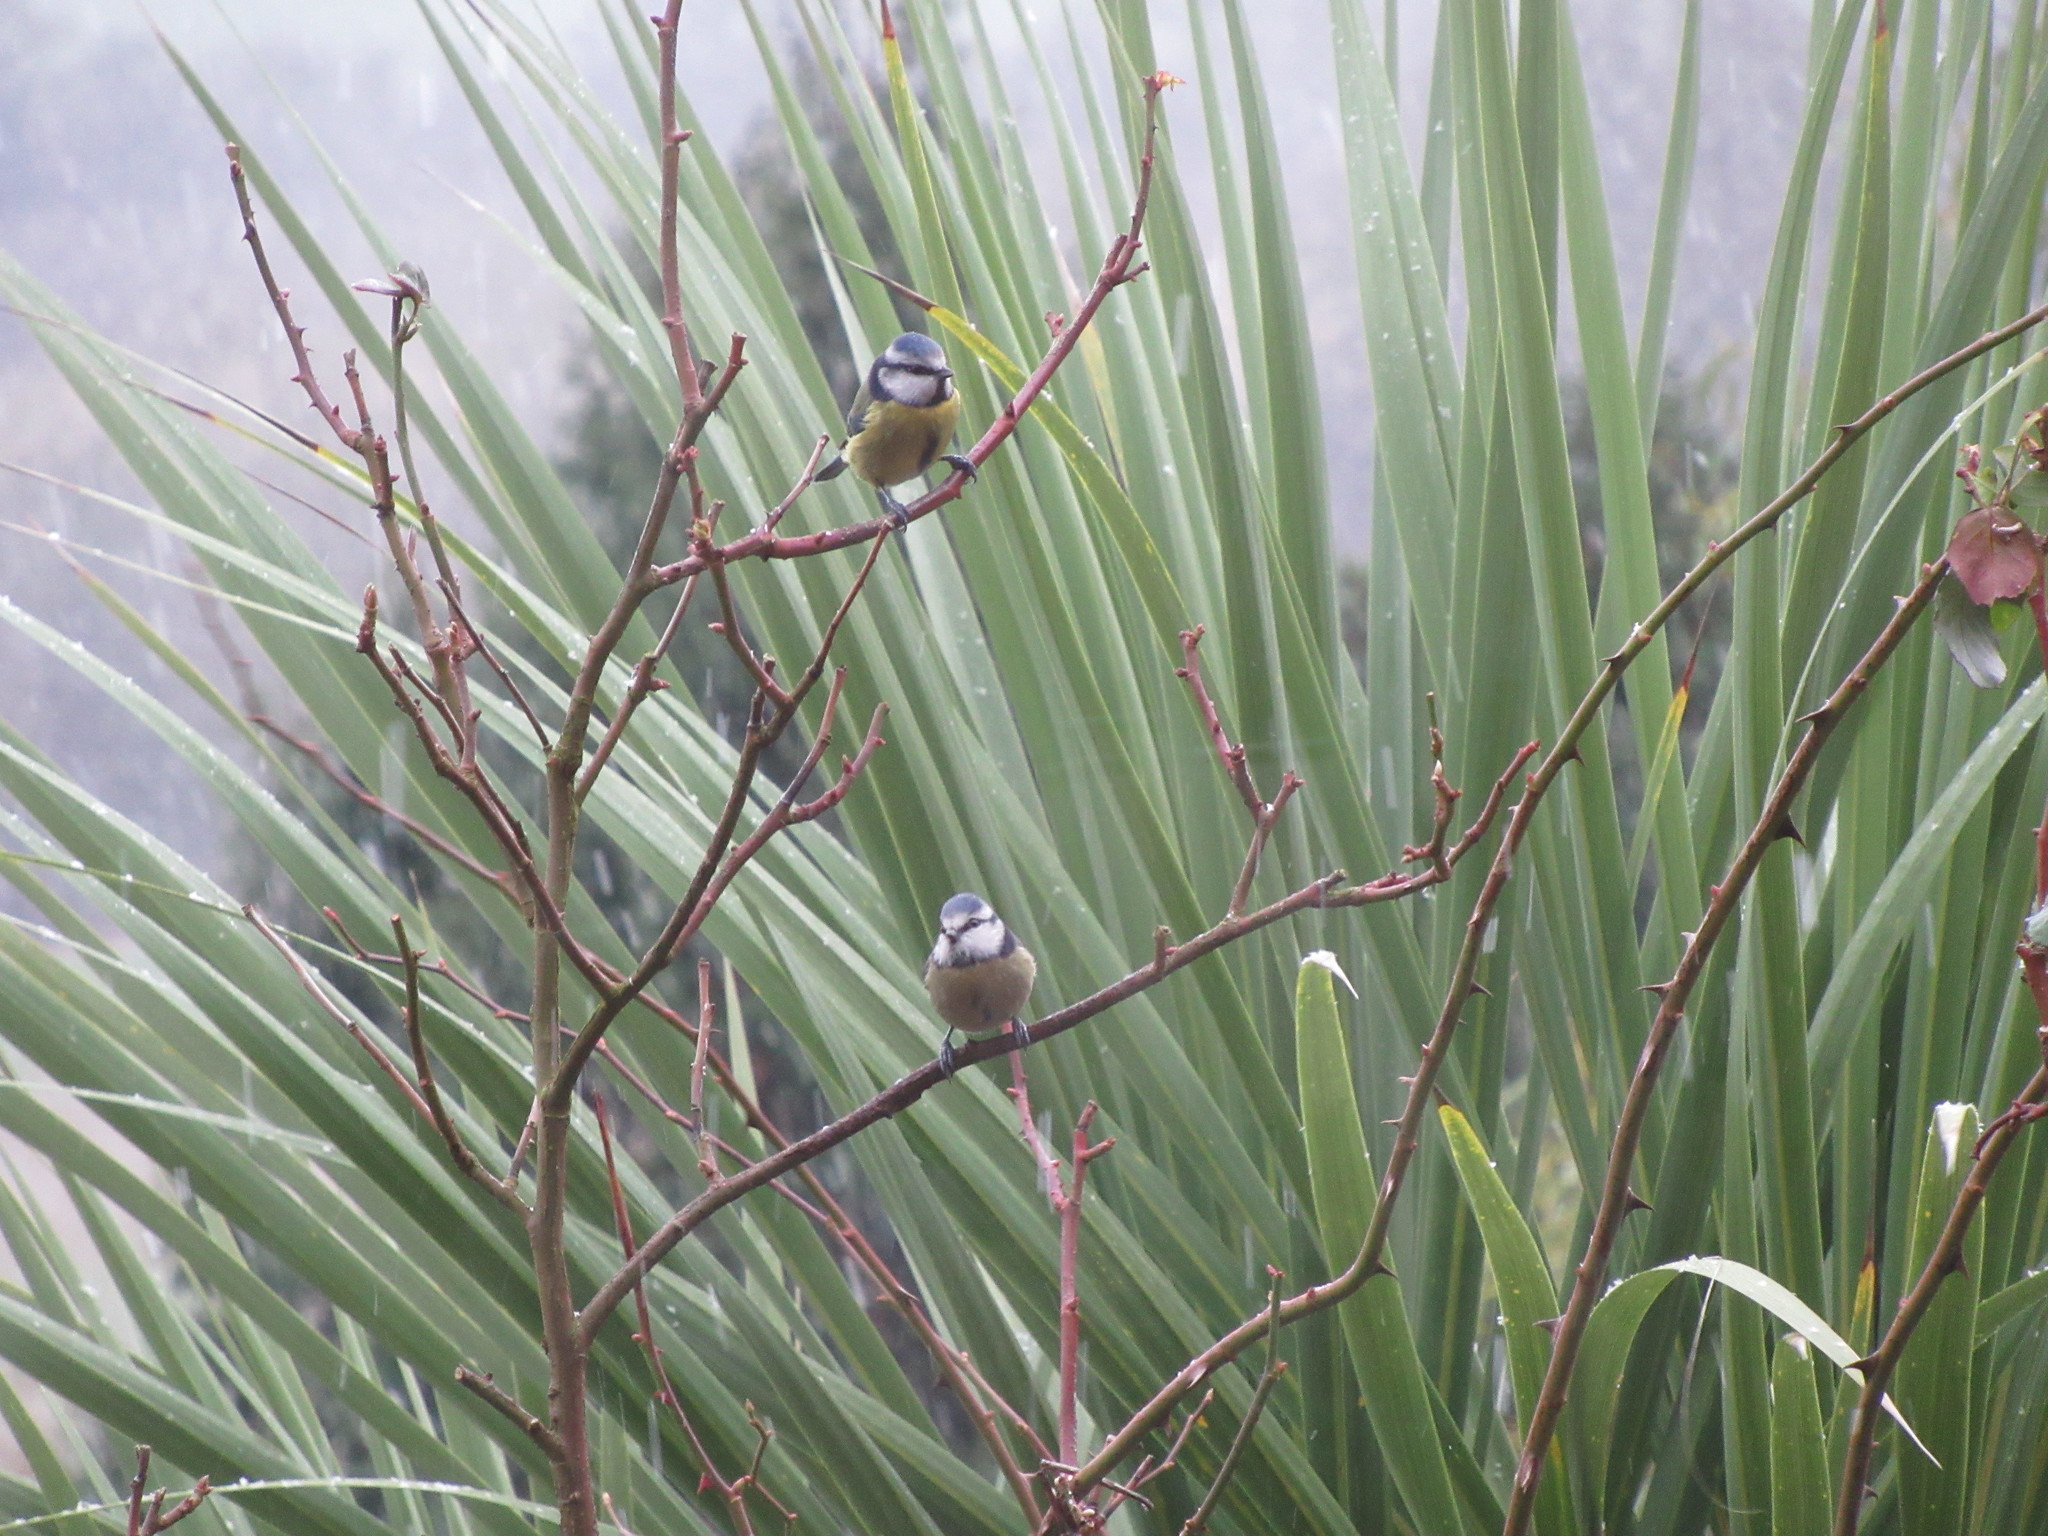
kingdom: Animalia
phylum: Chordata
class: Aves
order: Passeriformes
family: Paridae
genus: Cyanistes
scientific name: Cyanistes caeruleus
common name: Eurasian blue tit
